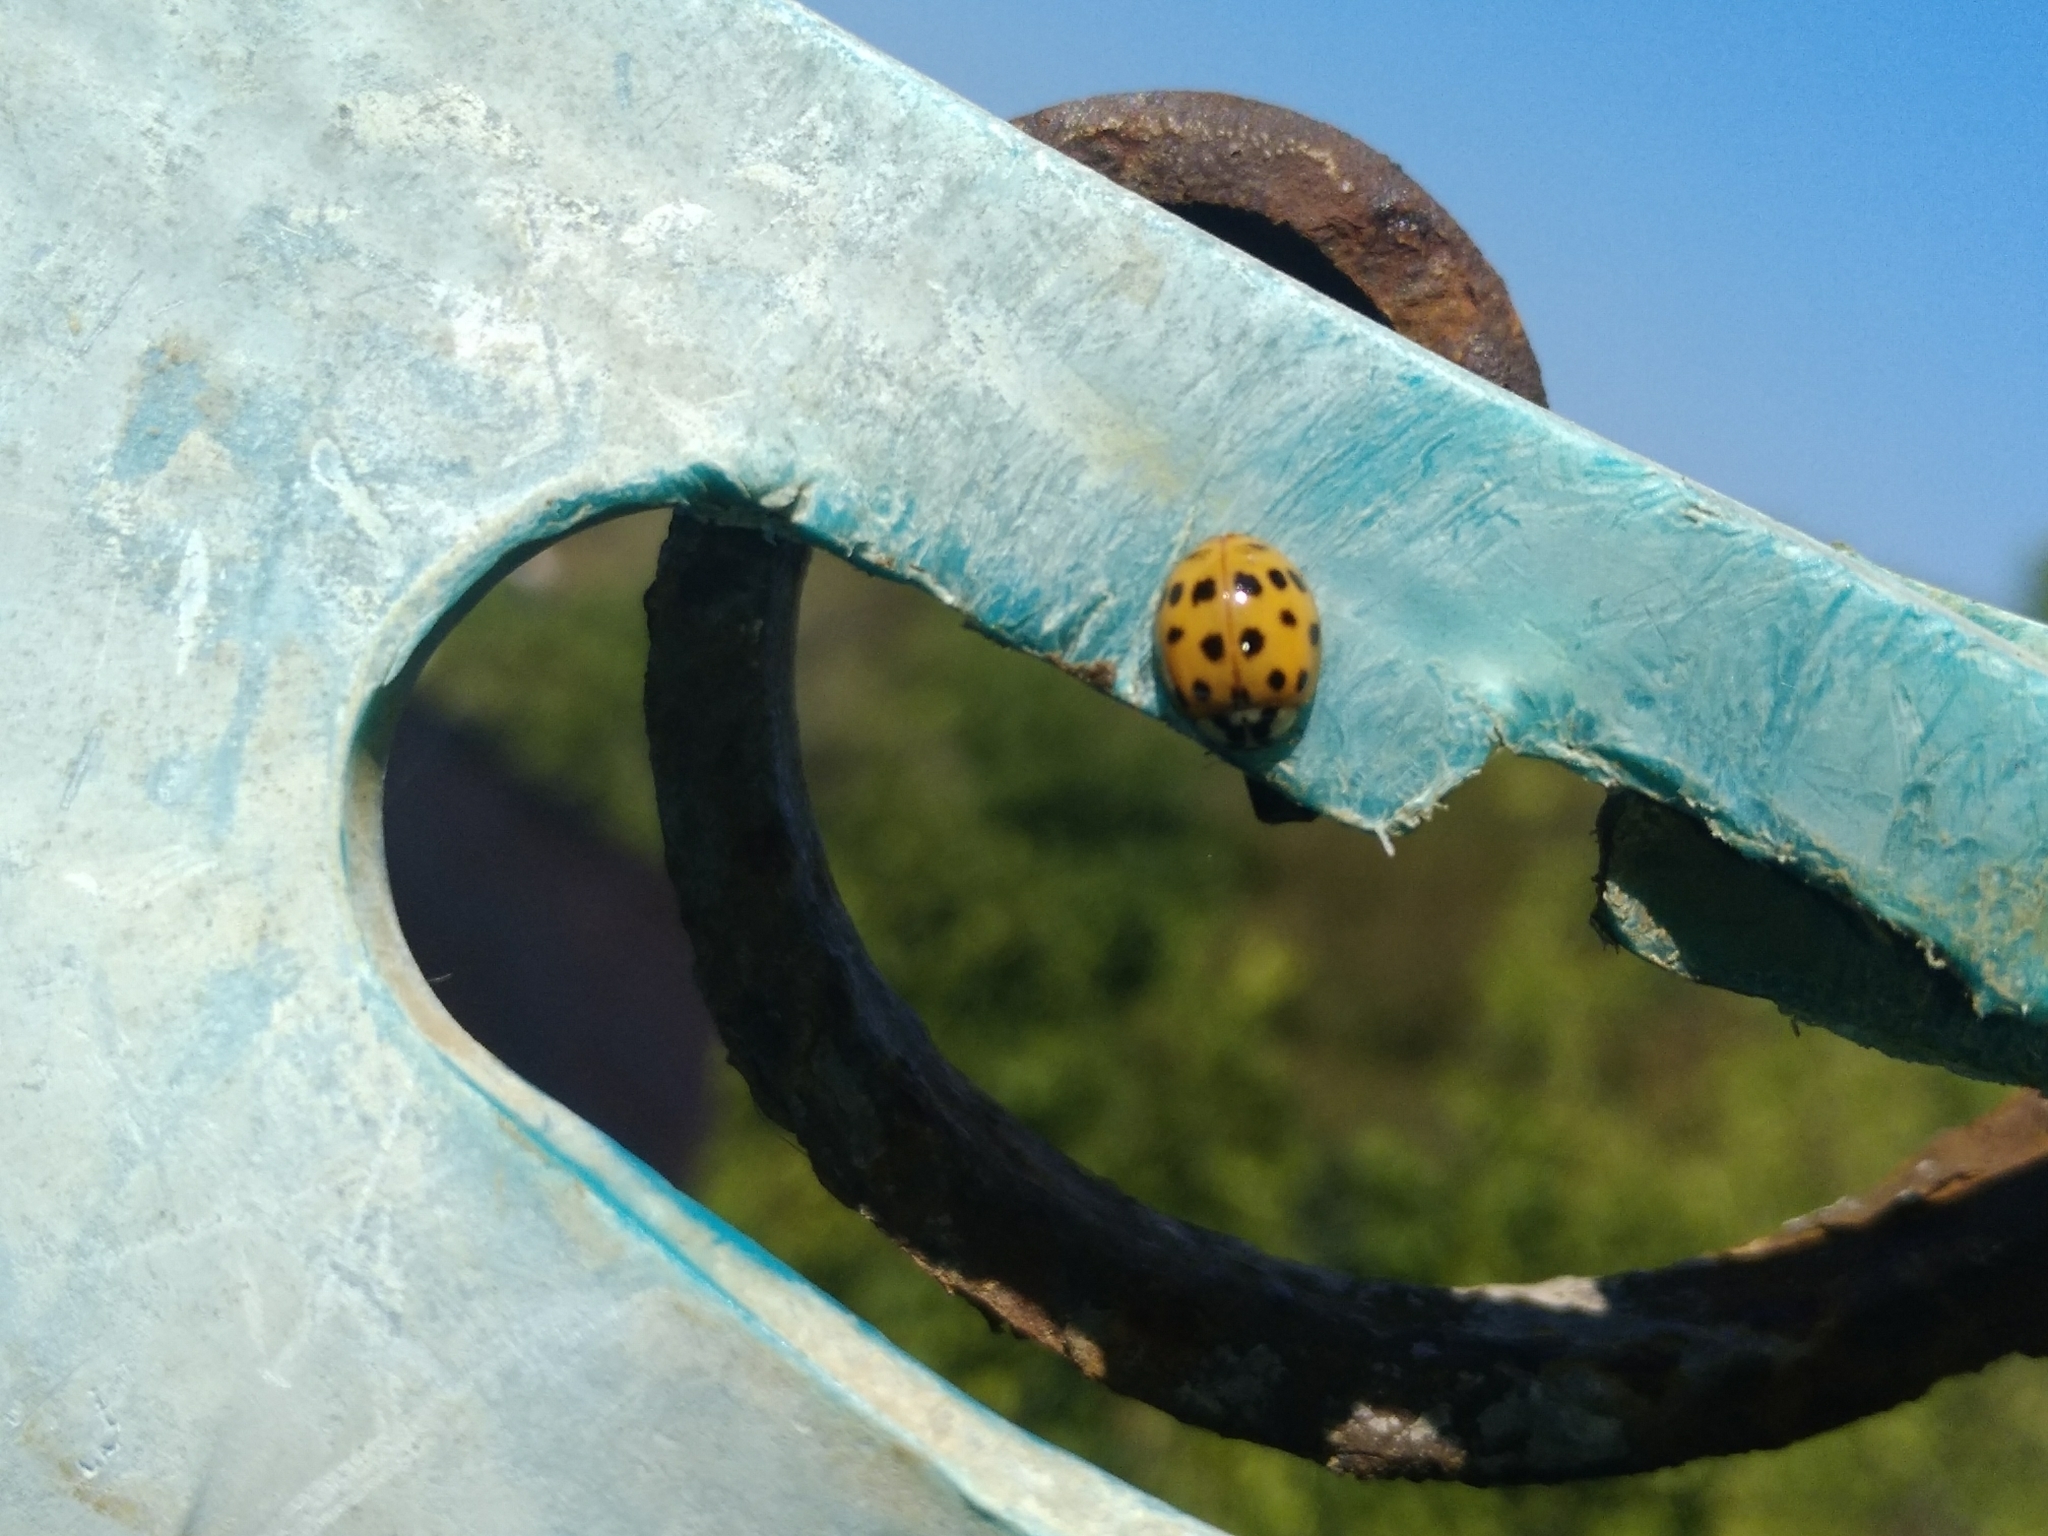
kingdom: Animalia
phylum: Arthropoda
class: Insecta
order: Coleoptera
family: Coccinellidae
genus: Harmonia
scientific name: Harmonia axyridis
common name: Harlequin ladybird
